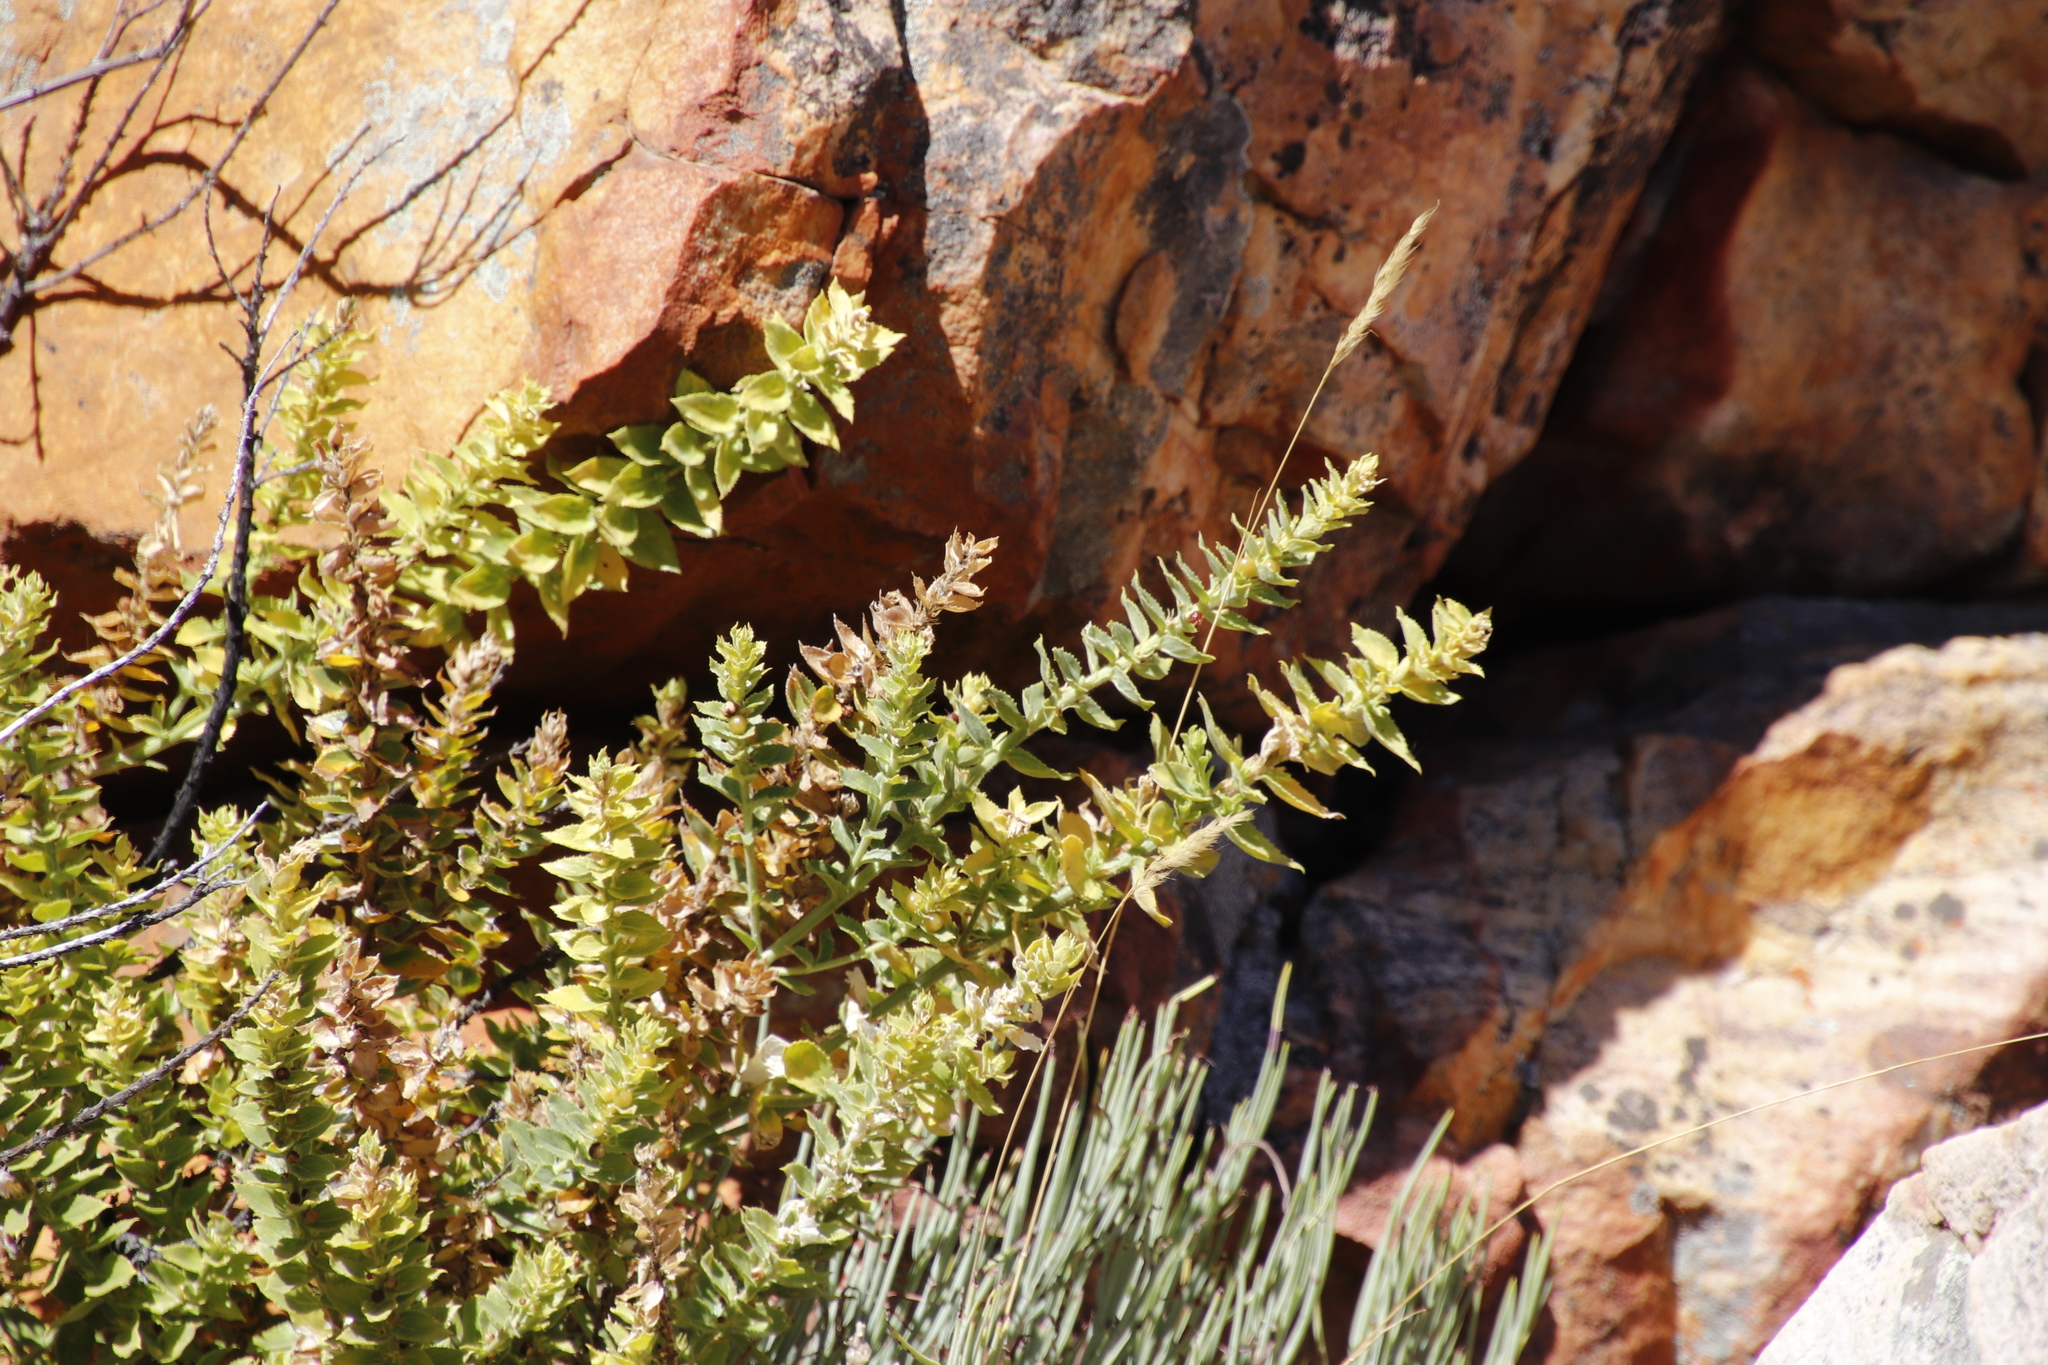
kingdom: Plantae
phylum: Tracheophyta
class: Magnoliopsida
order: Lamiales
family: Scrophulariaceae
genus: Oftia
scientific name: Oftia africana
